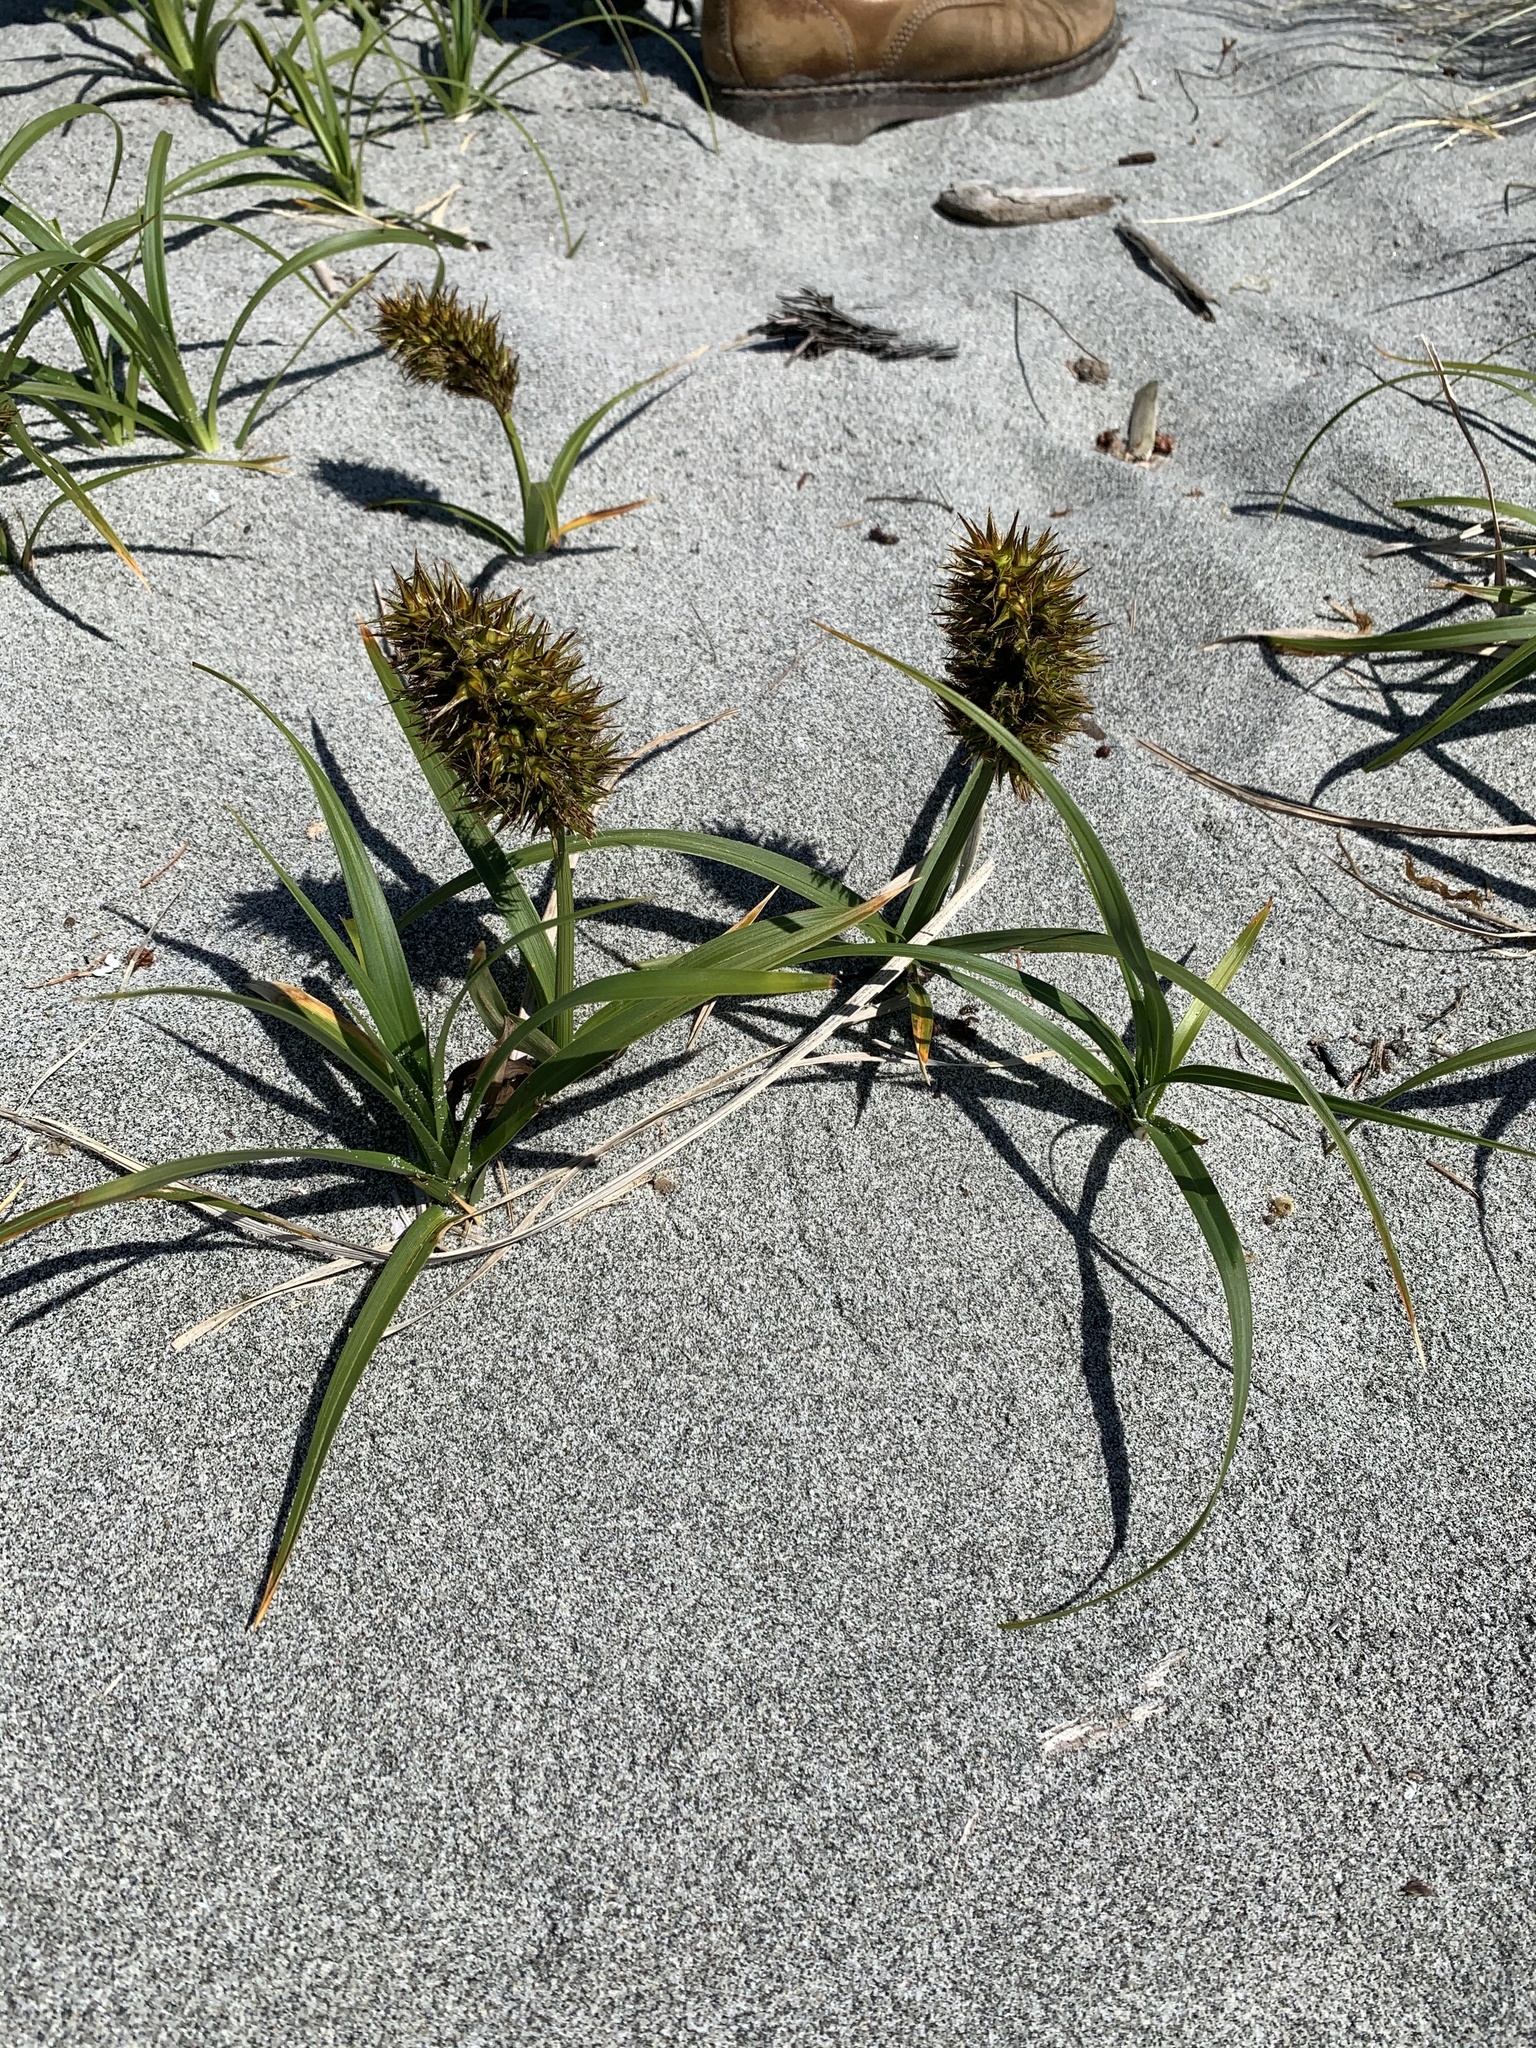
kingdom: Plantae
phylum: Tracheophyta
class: Liliopsida
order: Poales
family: Cyperaceae
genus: Carex
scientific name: Carex macrocephala
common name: Large-head sedge
